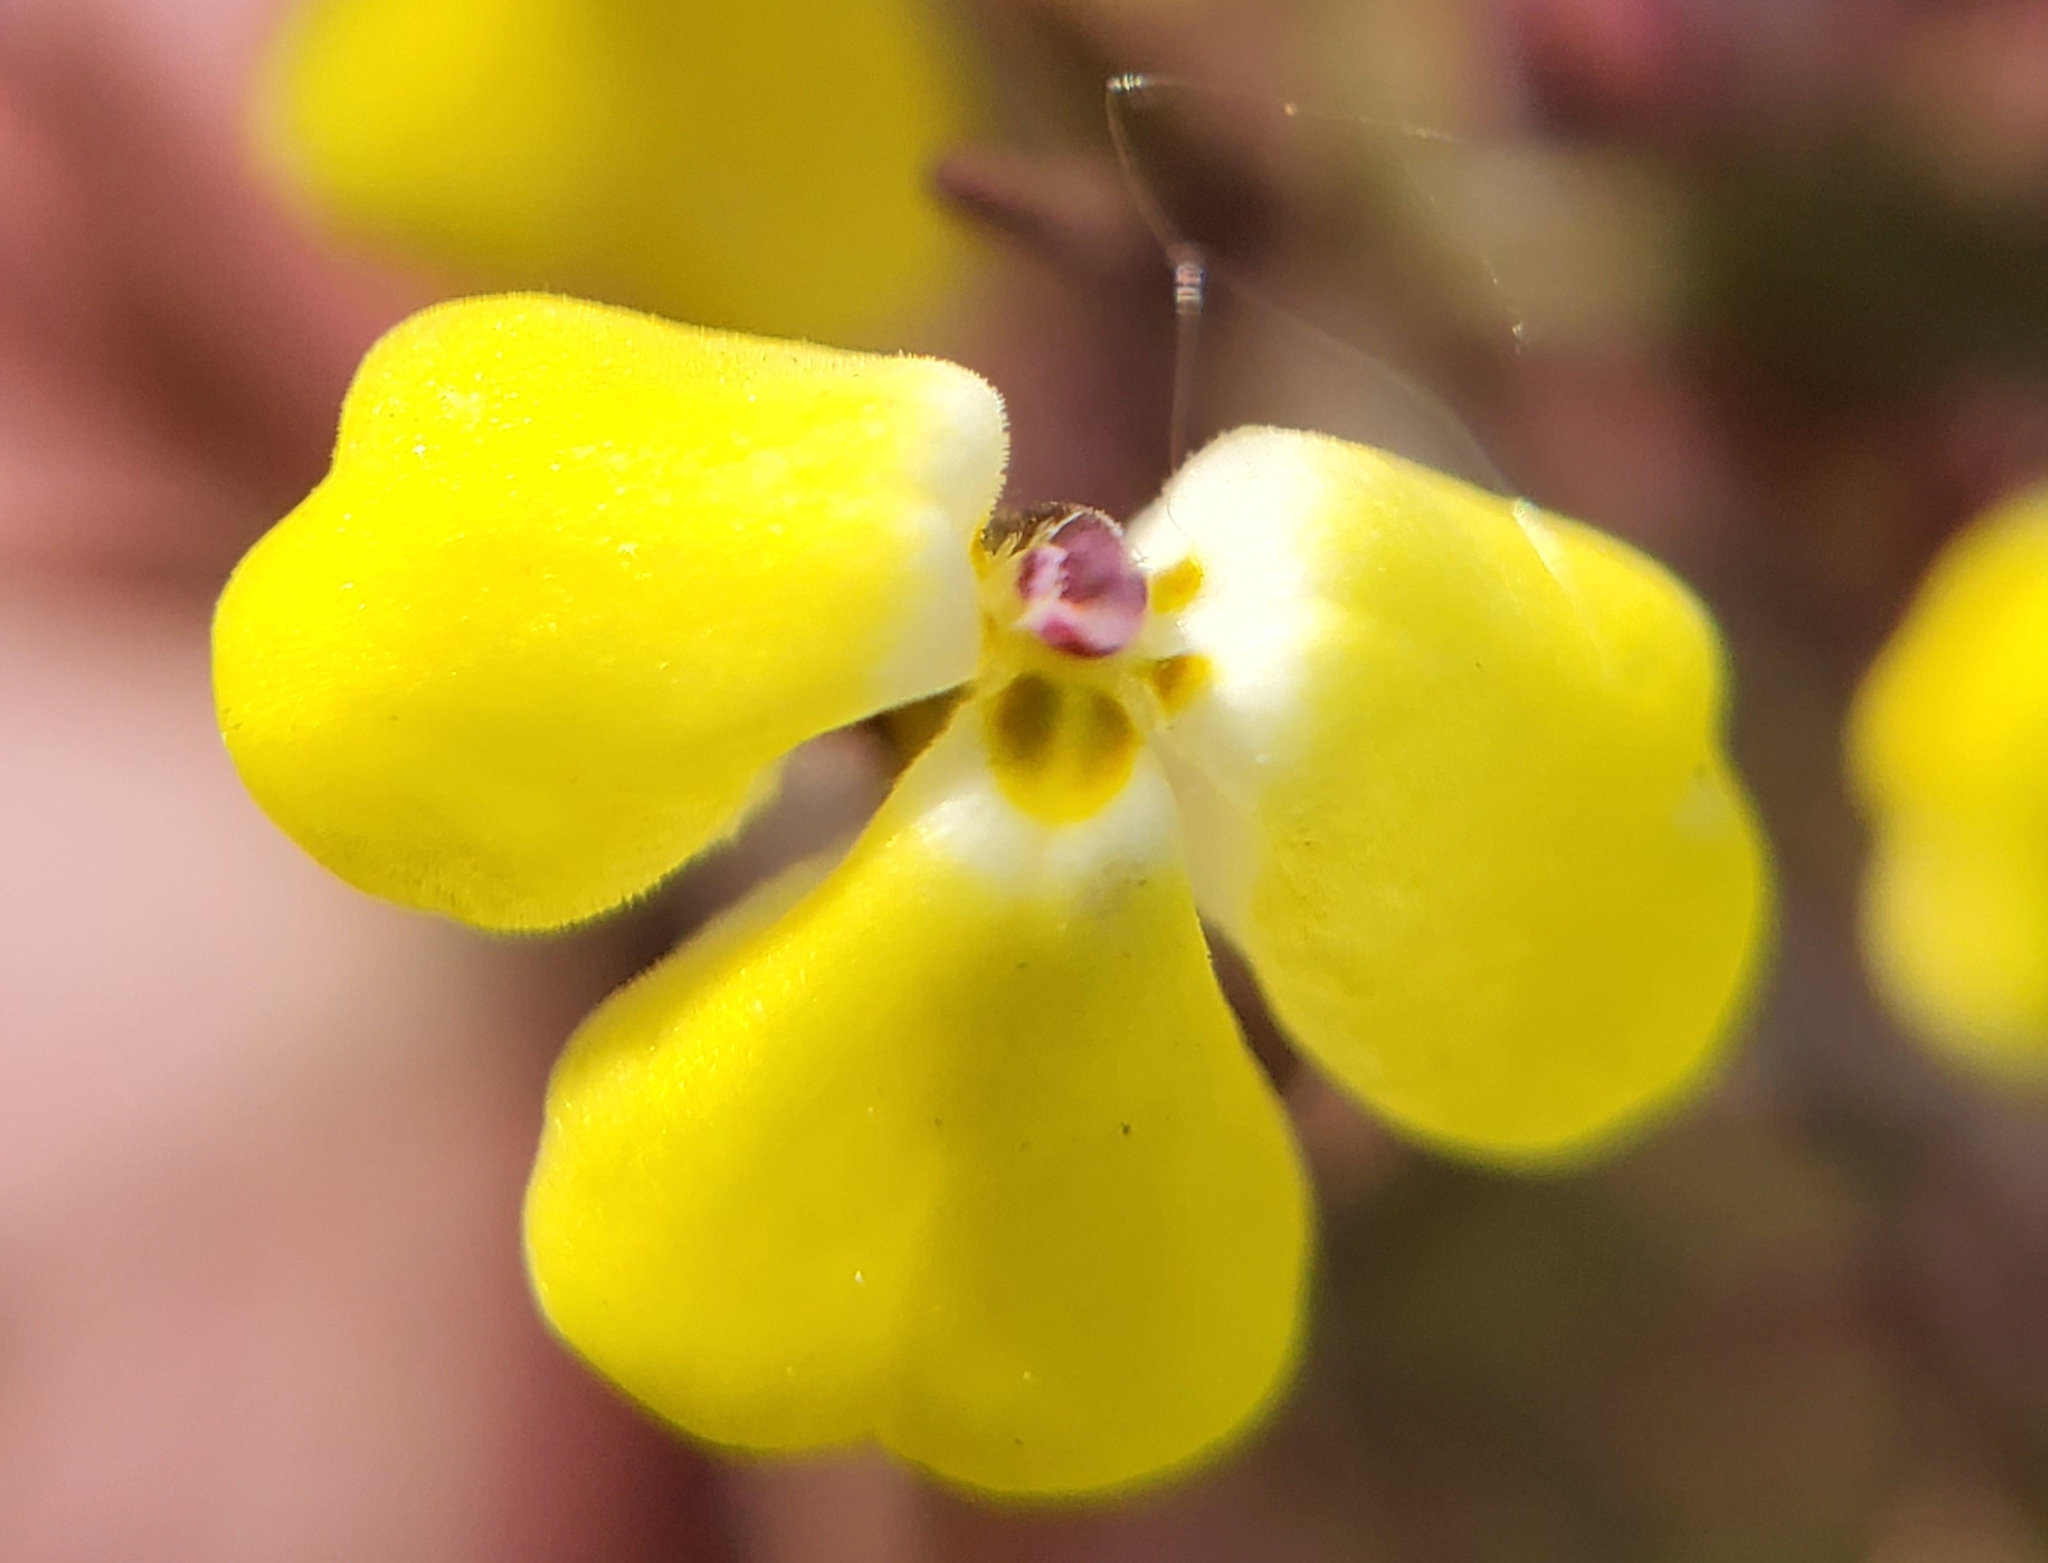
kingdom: Plantae
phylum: Tracheophyta
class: Magnoliopsida
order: Lamiales
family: Orobanchaceae
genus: Triphysaria
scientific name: Triphysaria eriantha
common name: Johnny-tuck
